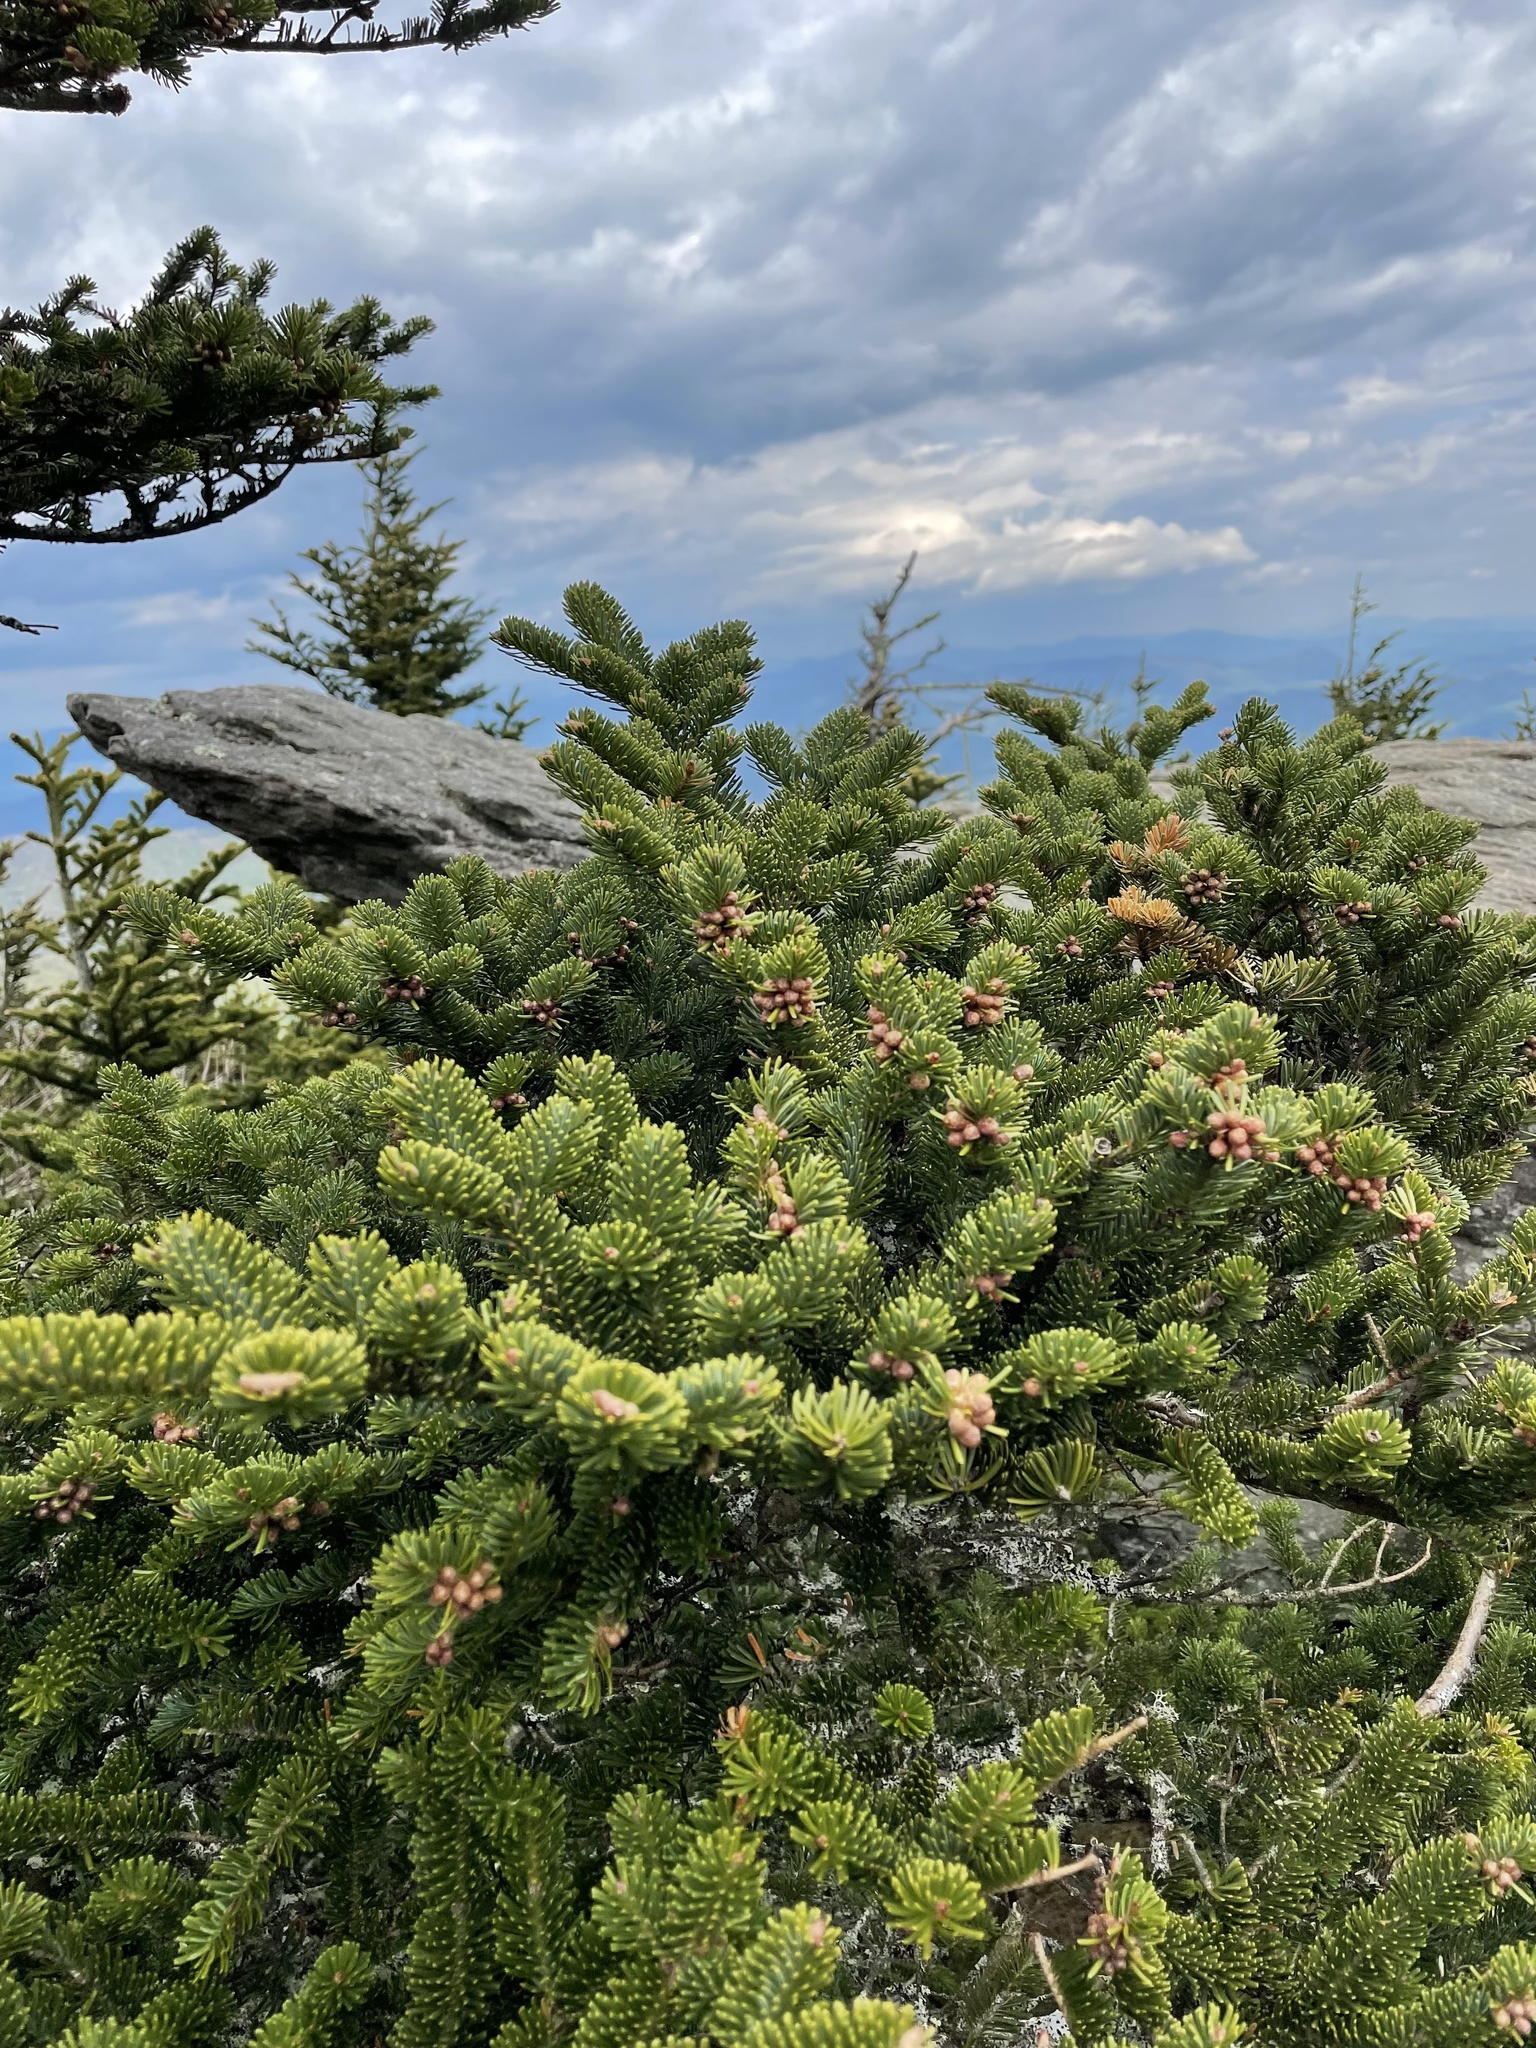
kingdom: Plantae
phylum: Tracheophyta
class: Pinopsida
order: Pinales
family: Pinaceae
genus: Abies
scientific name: Abies fraseri
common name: Fraser fir
